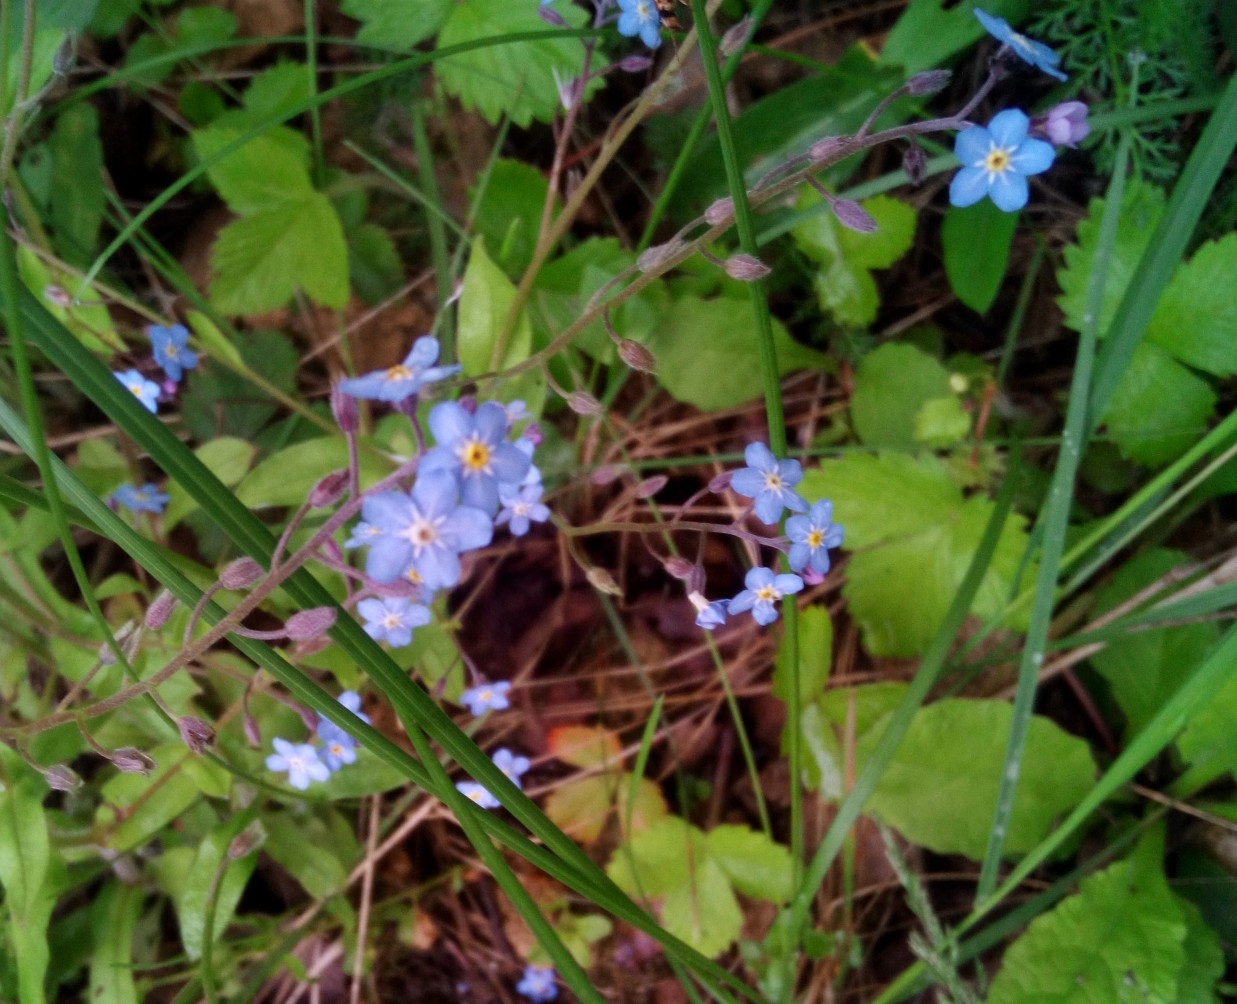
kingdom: Plantae
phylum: Tracheophyta
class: Magnoliopsida
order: Boraginales
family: Boraginaceae
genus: Myosotis
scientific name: Myosotis sylvatica
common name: Wood forget-me-not
